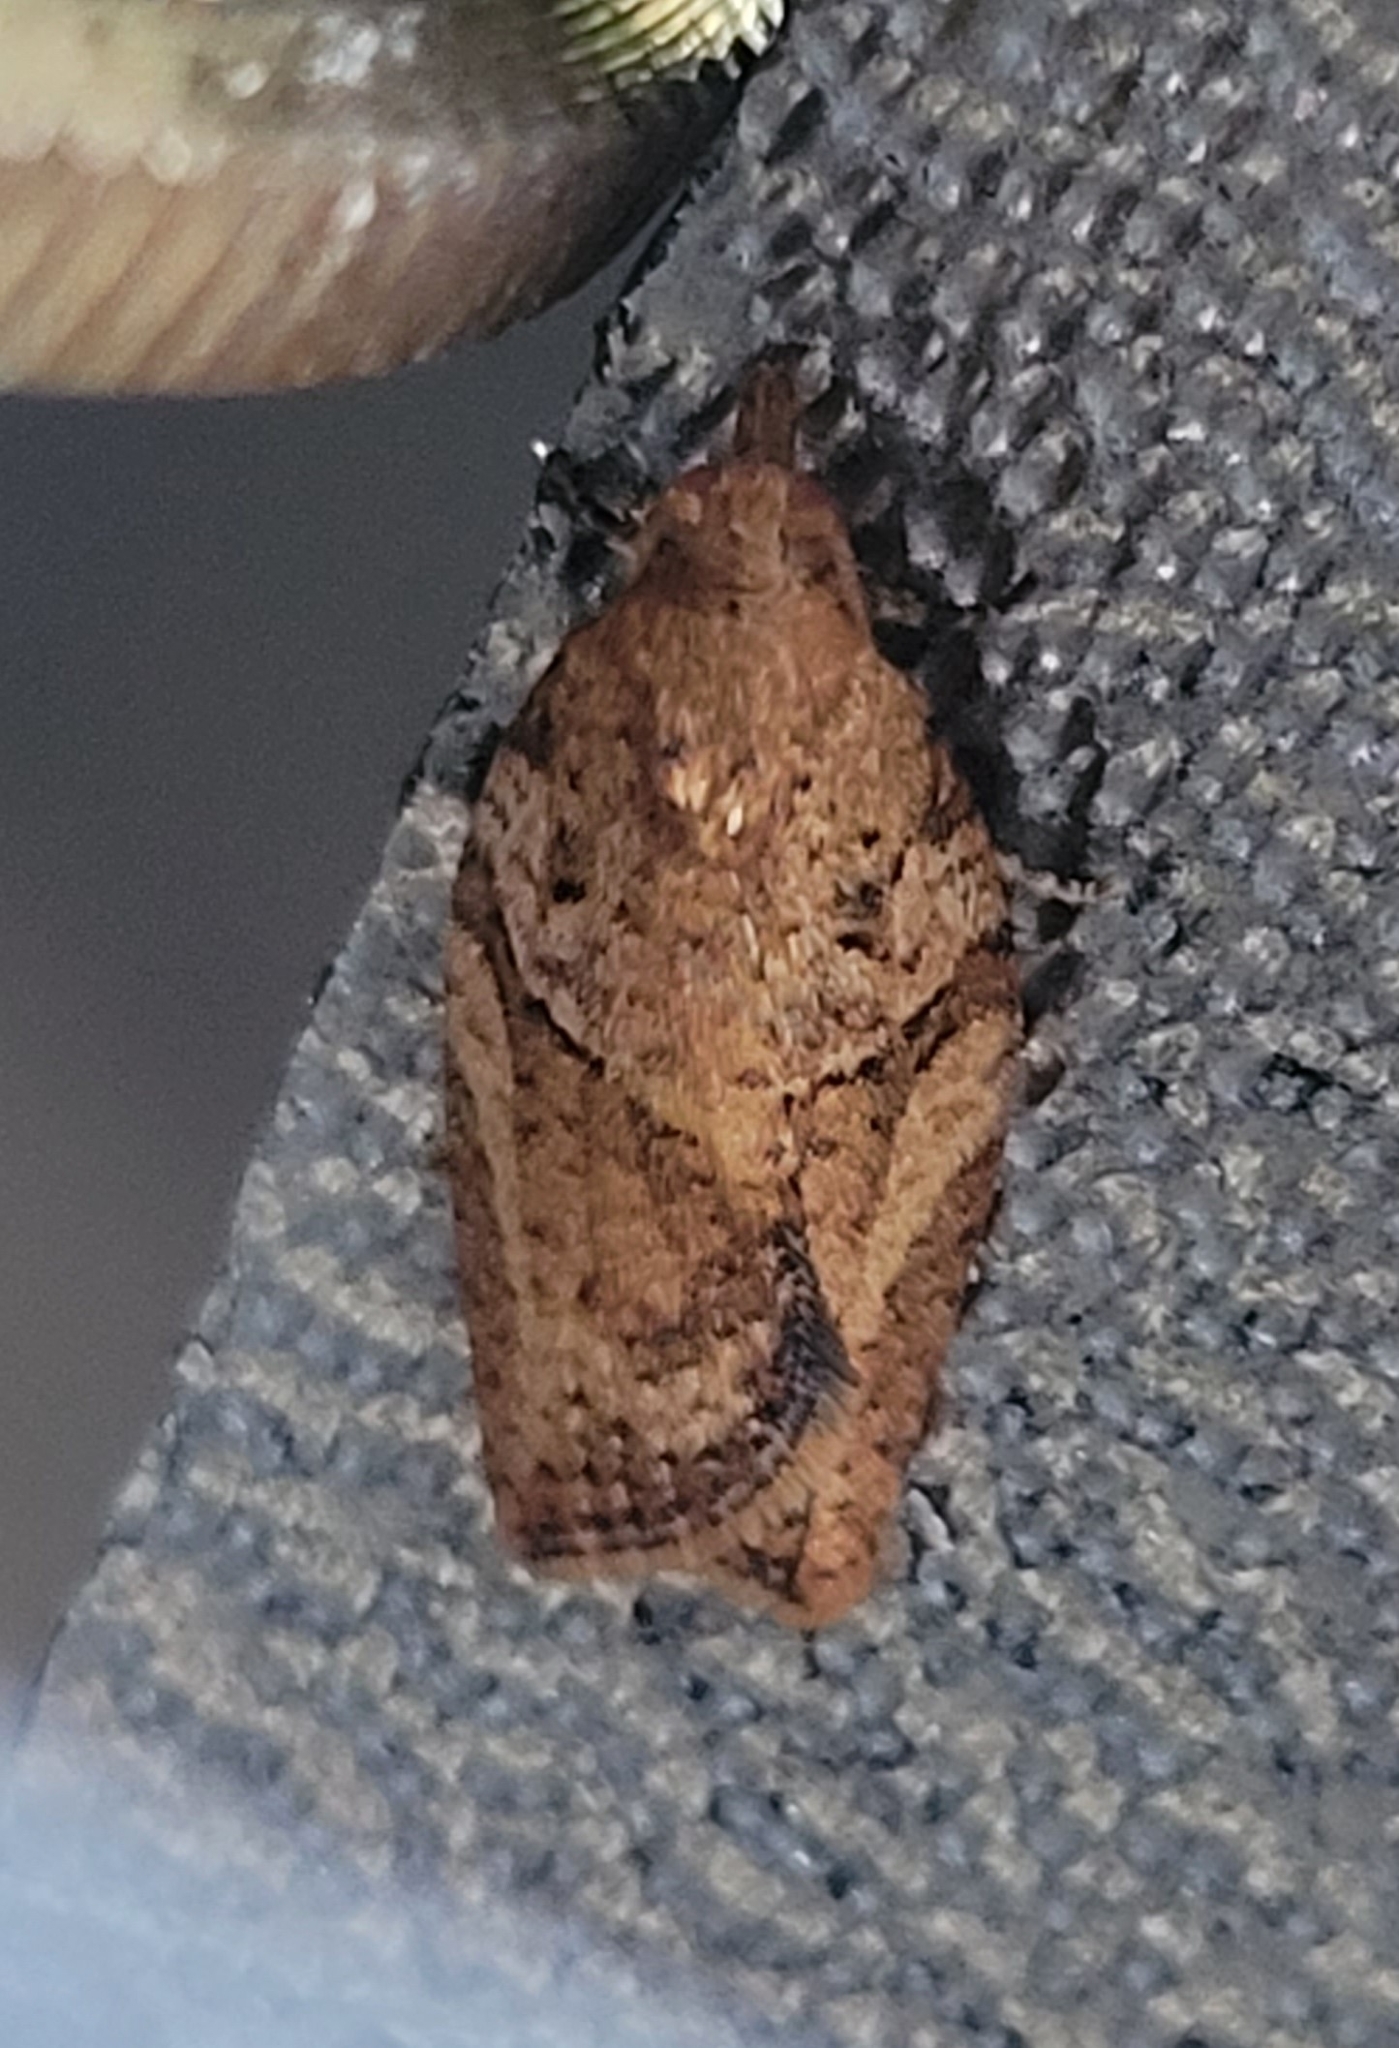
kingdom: Animalia
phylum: Arthropoda
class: Insecta
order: Lepidoptera
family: Tortricidae
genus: Epiphyas
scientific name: Epiphyas postvittana
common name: Light brown apple moth
